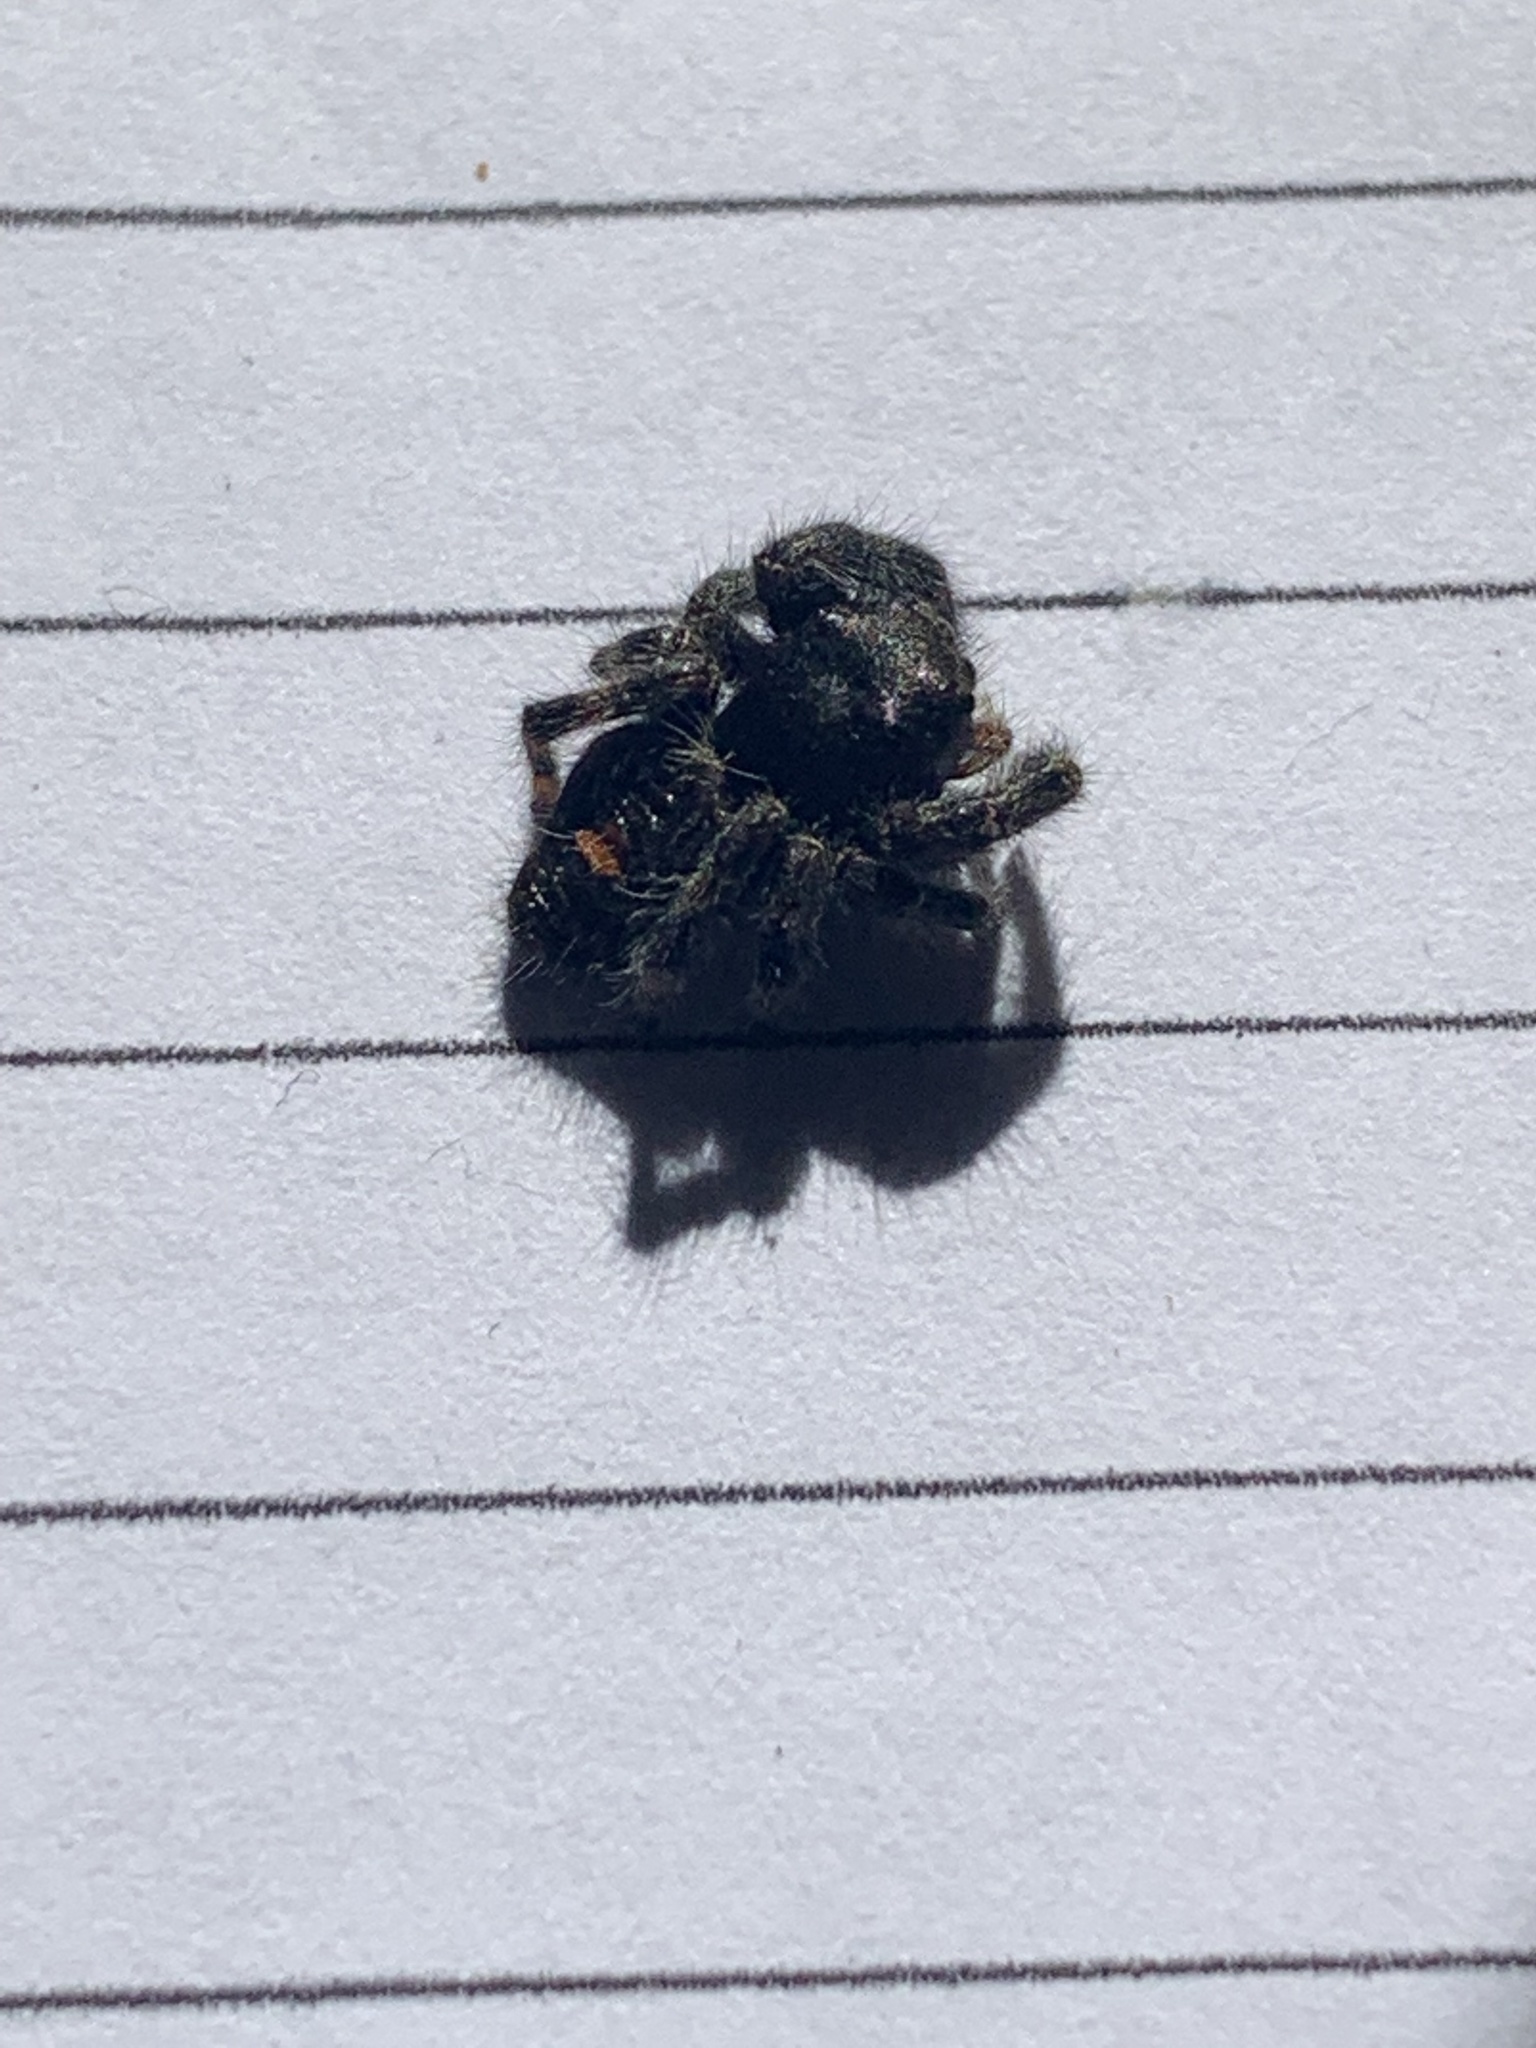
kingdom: Animalia
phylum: Arthropoda
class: Arachnida
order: Araneae
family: Salticidae
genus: Phidippus
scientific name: Phidippus audax
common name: Bold jumper
